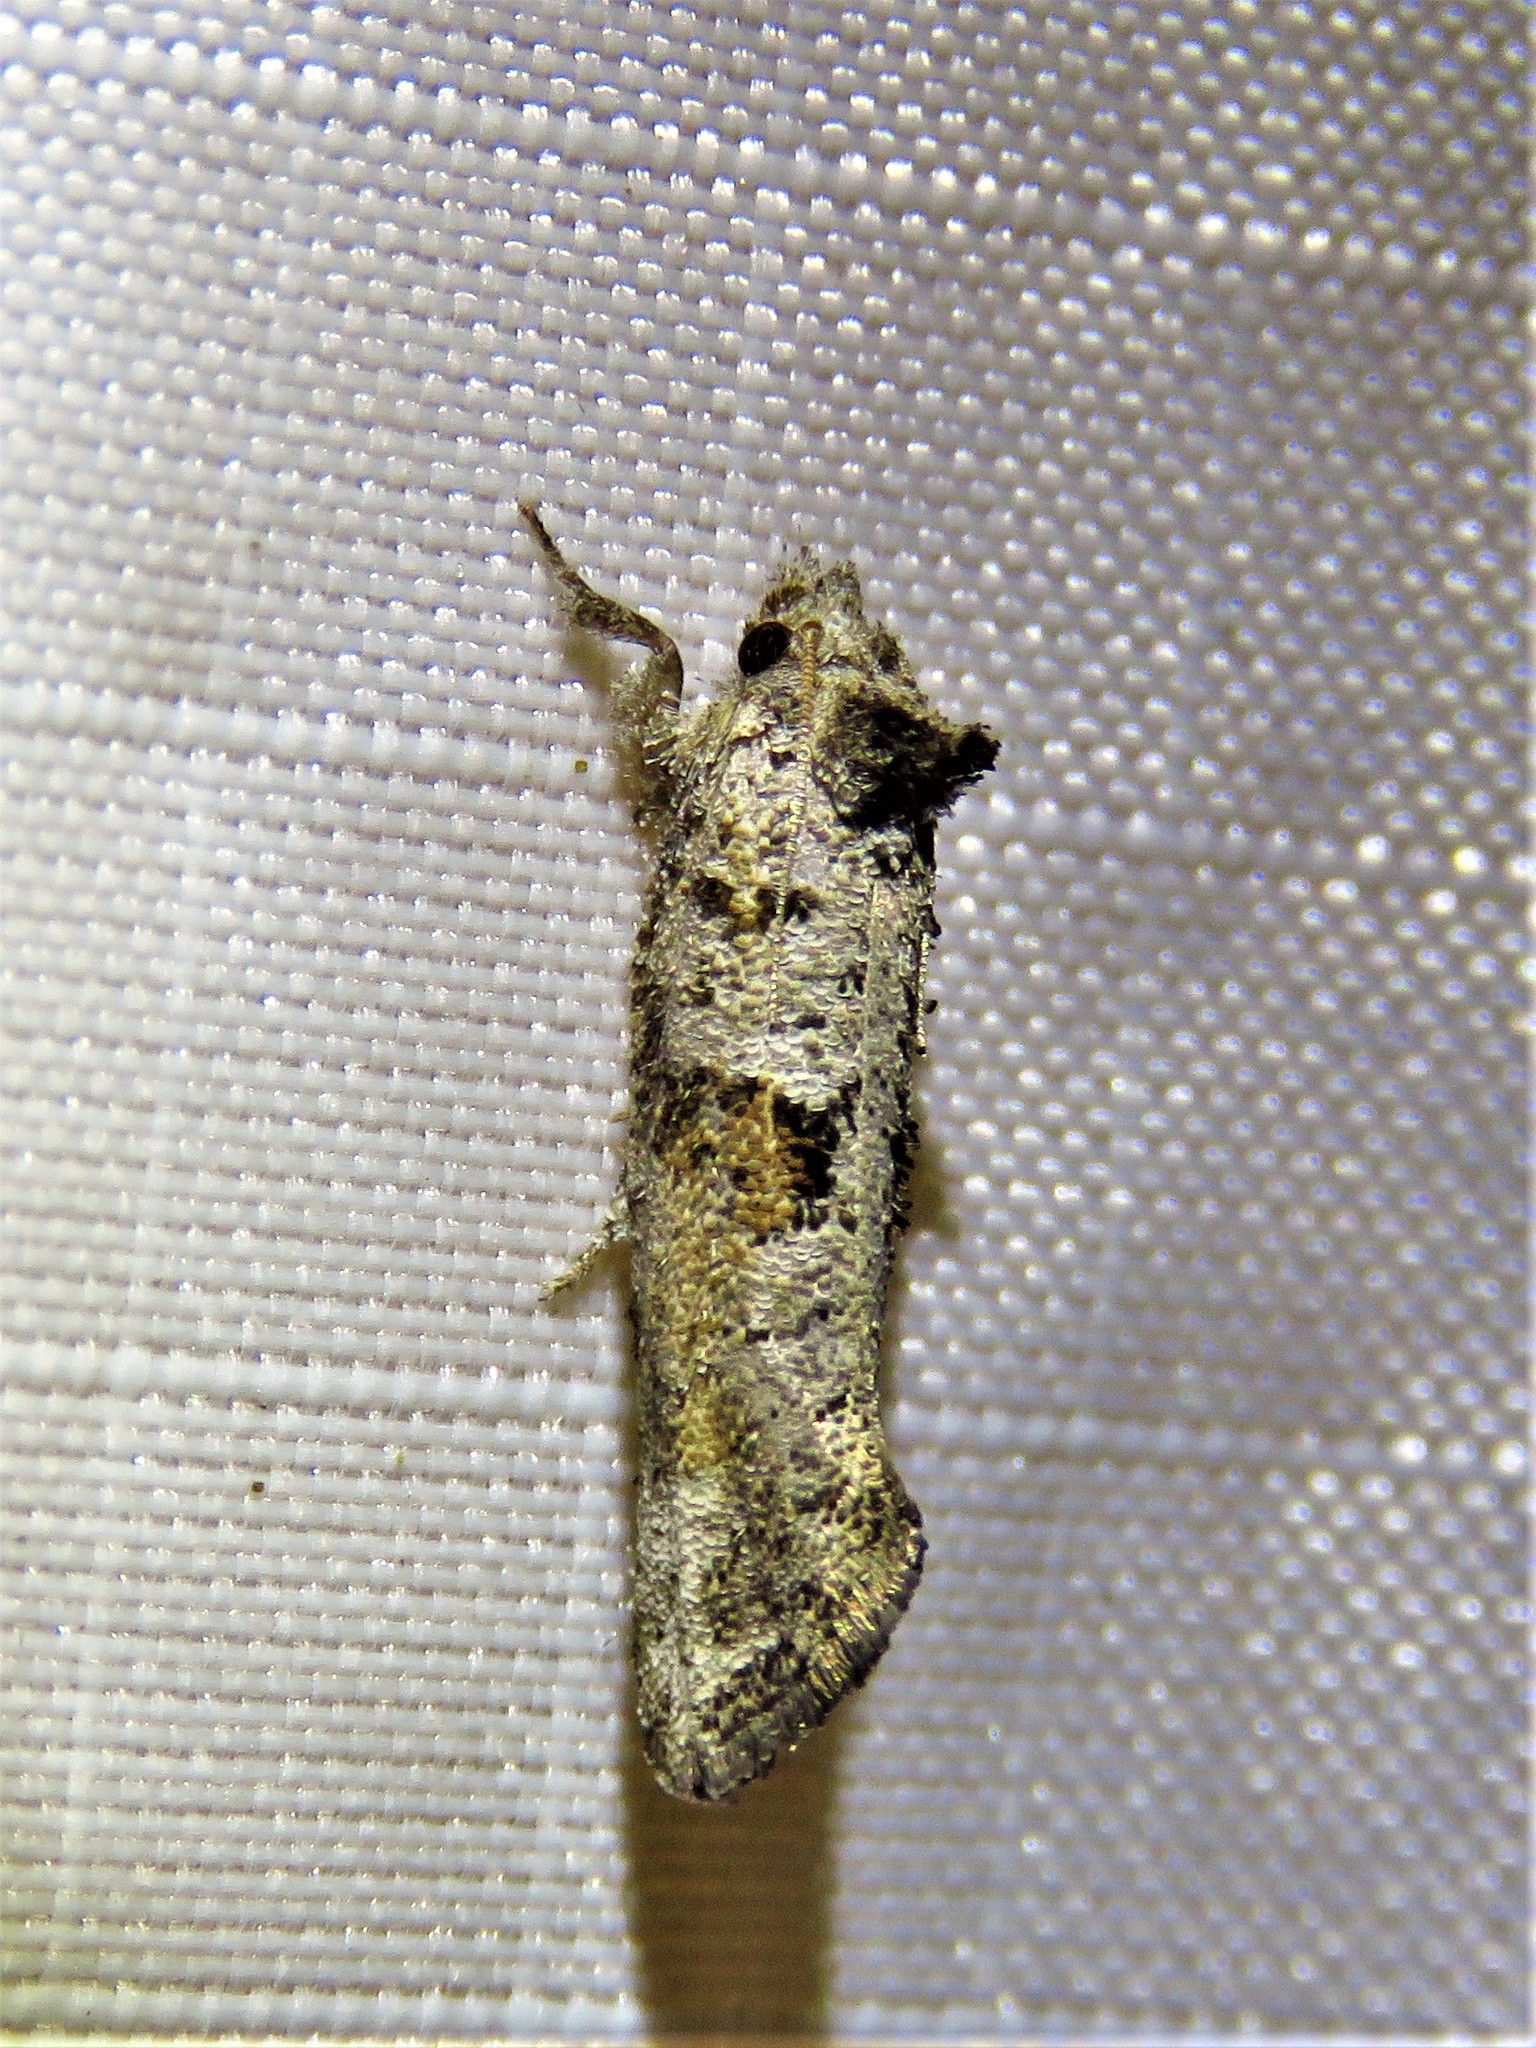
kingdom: Animalia
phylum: Arthropoda
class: Insecta
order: Lepidoptera
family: Tineidae
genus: Acrolophus
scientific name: Acrolophus piger
